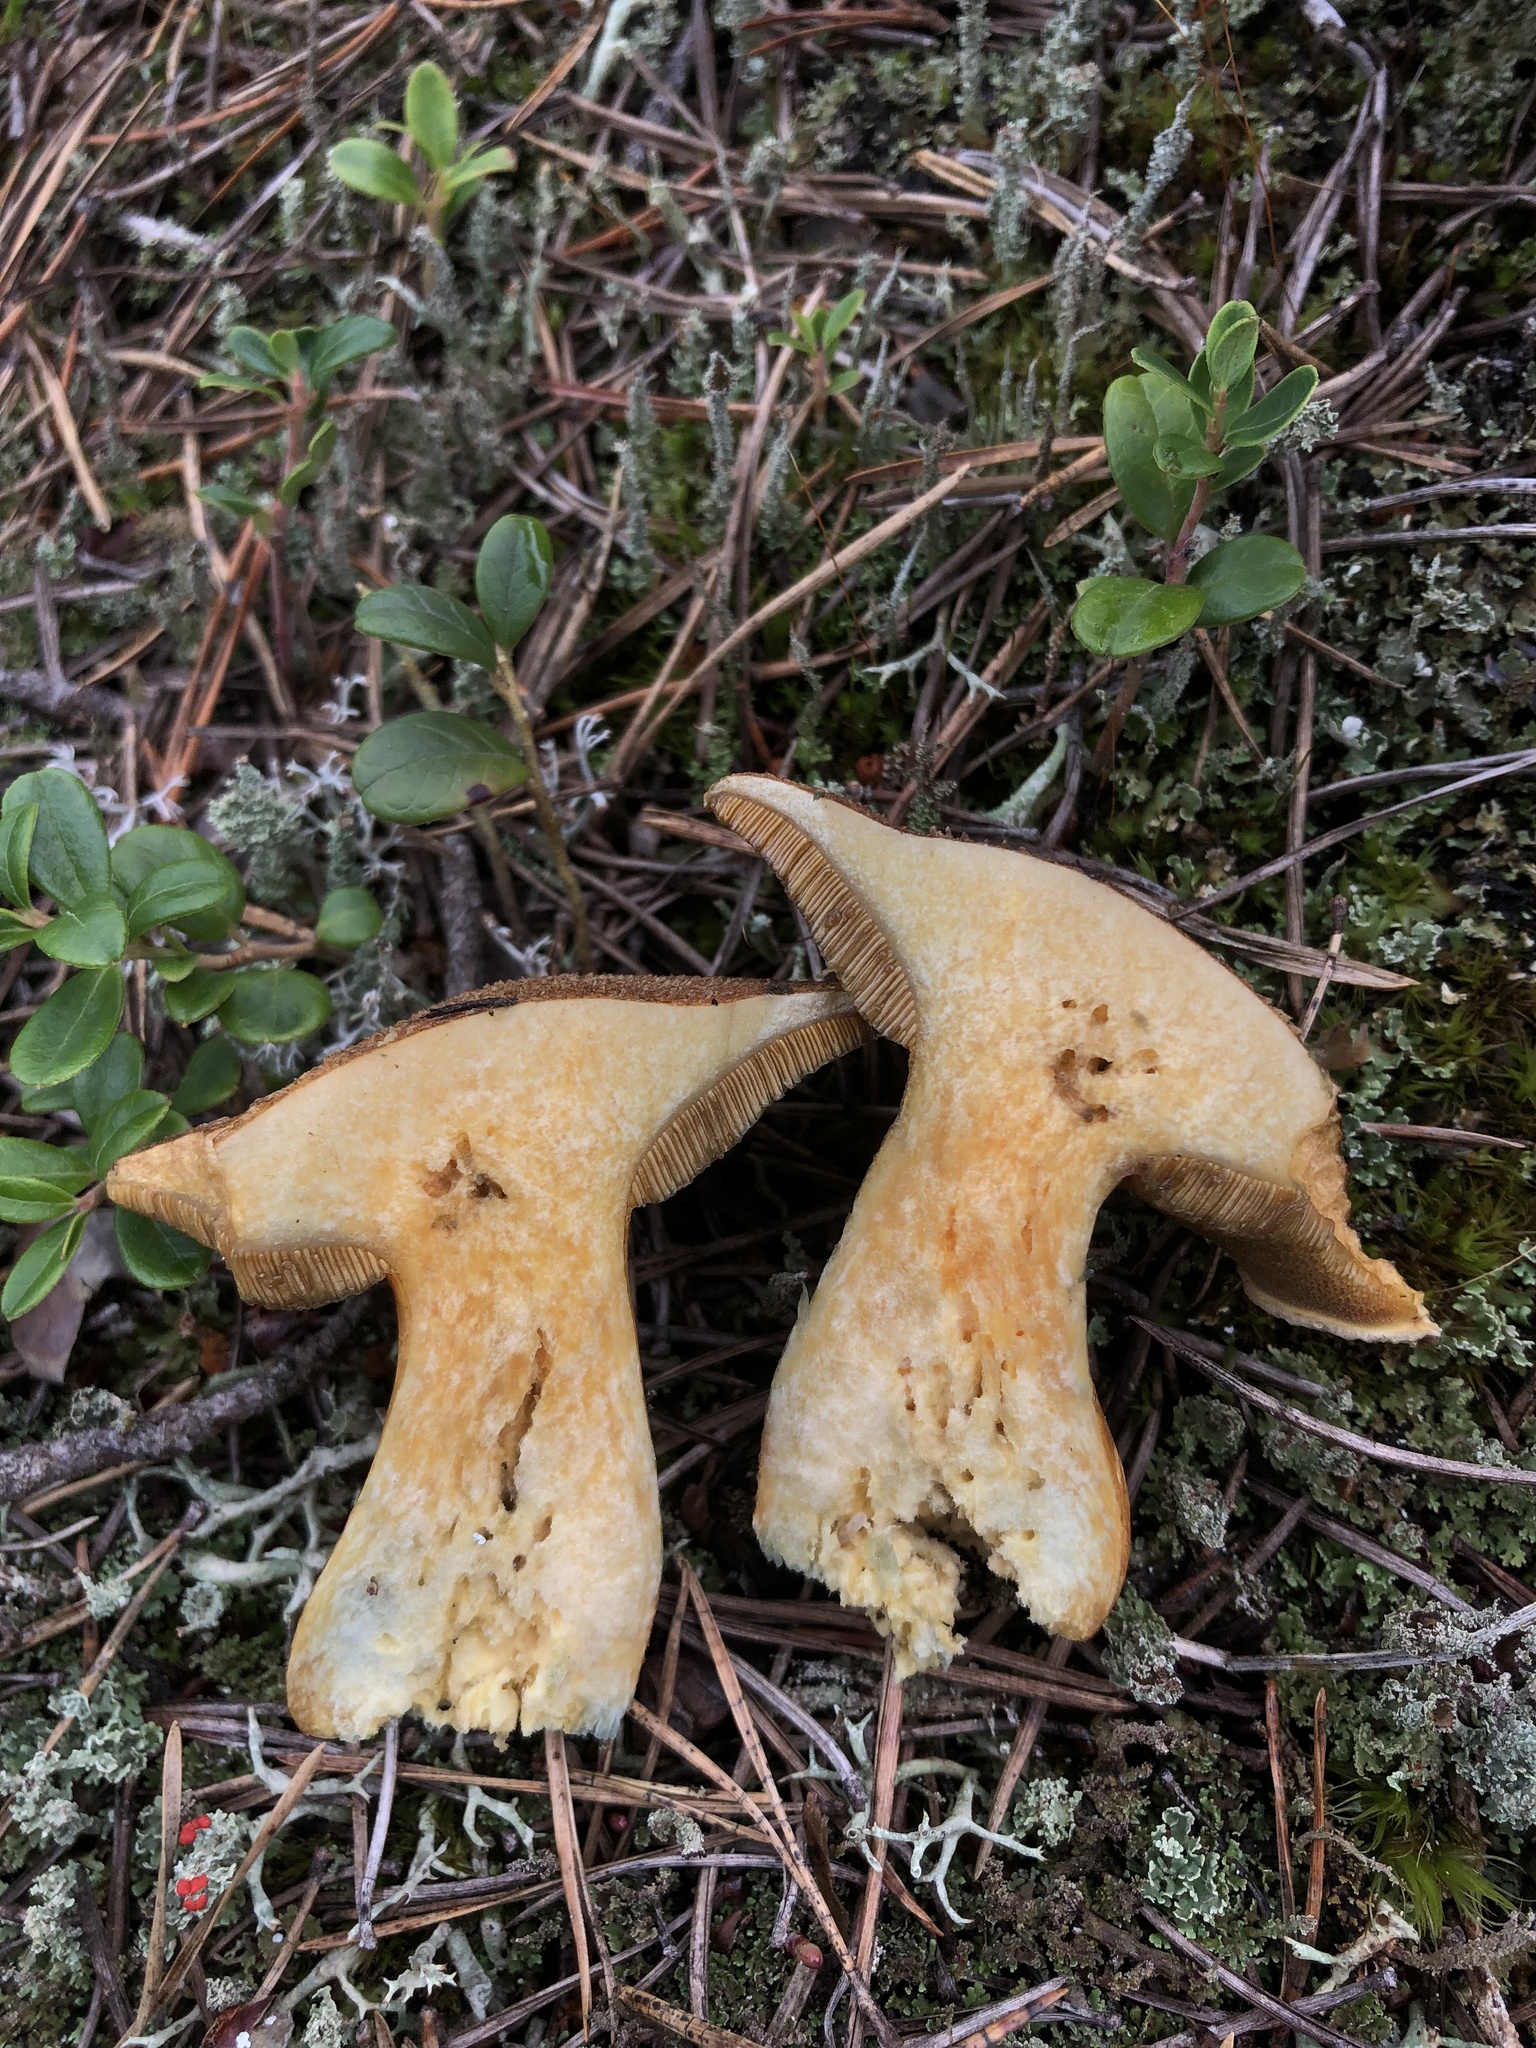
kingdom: Fungi
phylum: Basidiomycota
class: Agaricomycetes
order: Boletales
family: Suillaceae
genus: Suillus
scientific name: Suillus variegatus
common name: Velvet bolete
